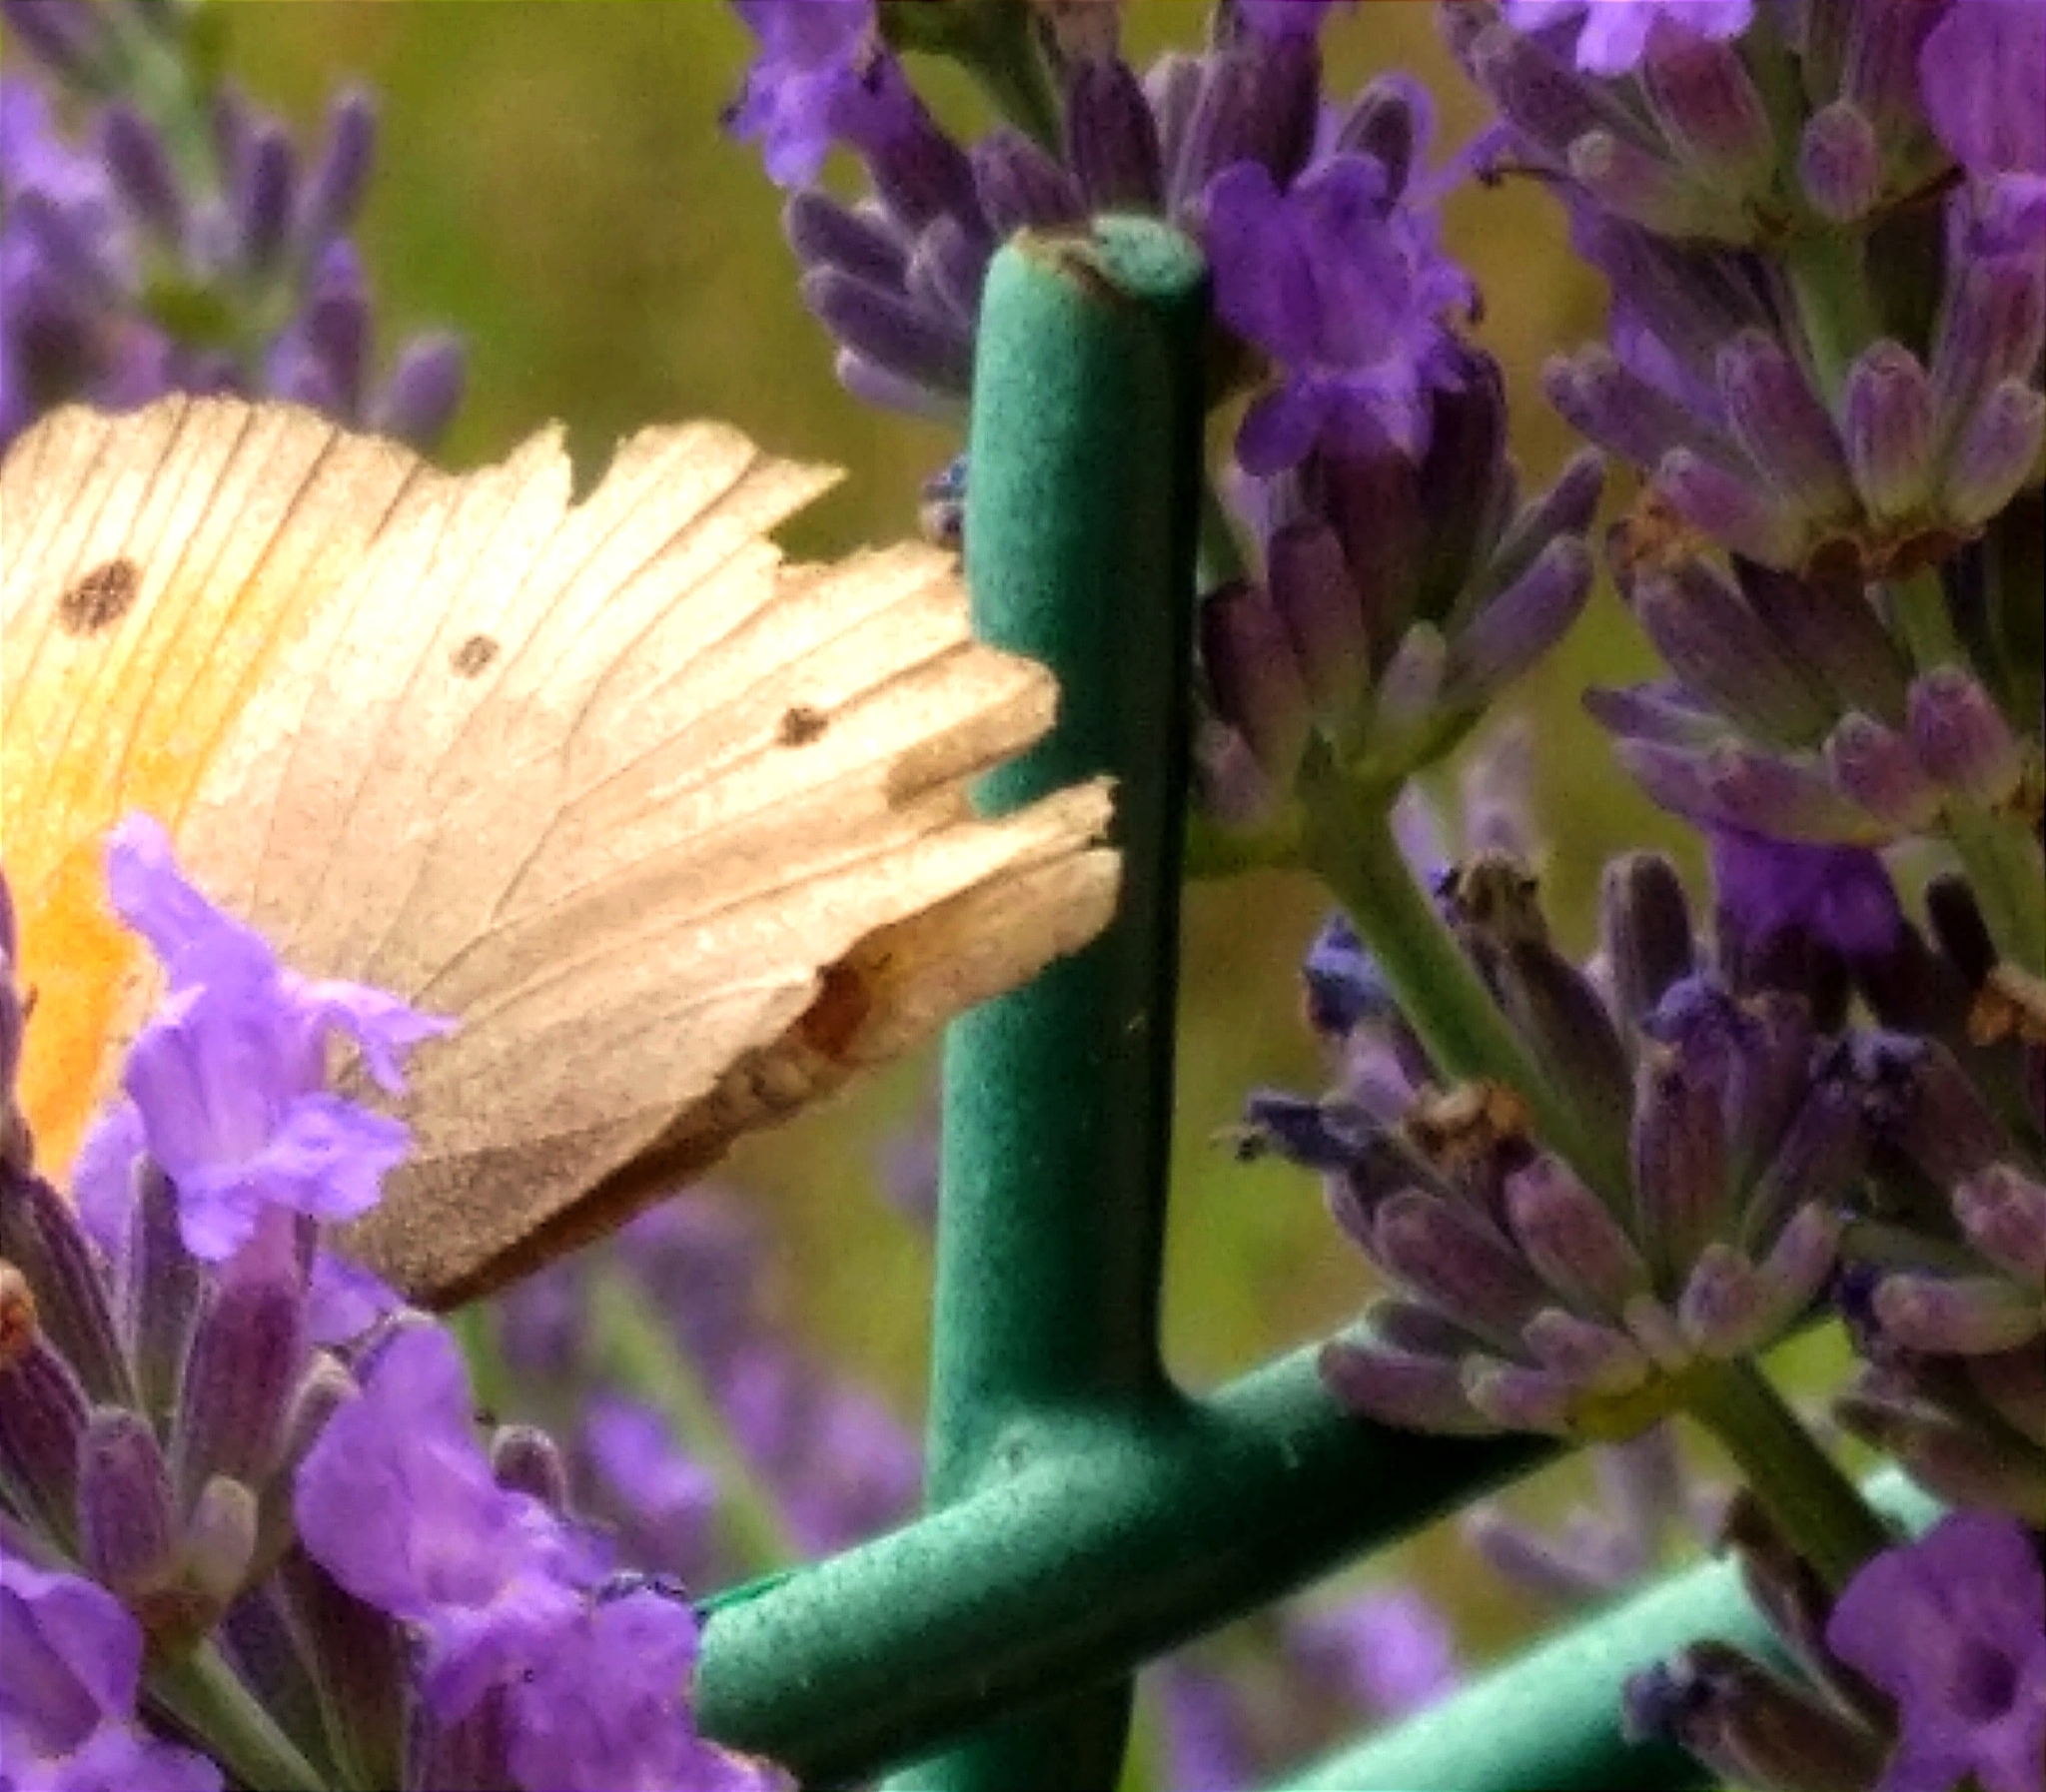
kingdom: Animalia
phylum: Arthropoda
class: Insecta
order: Lepidoptera
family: Nymphalidae
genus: Maniola
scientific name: Maniola jurtina
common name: Meadow brown
